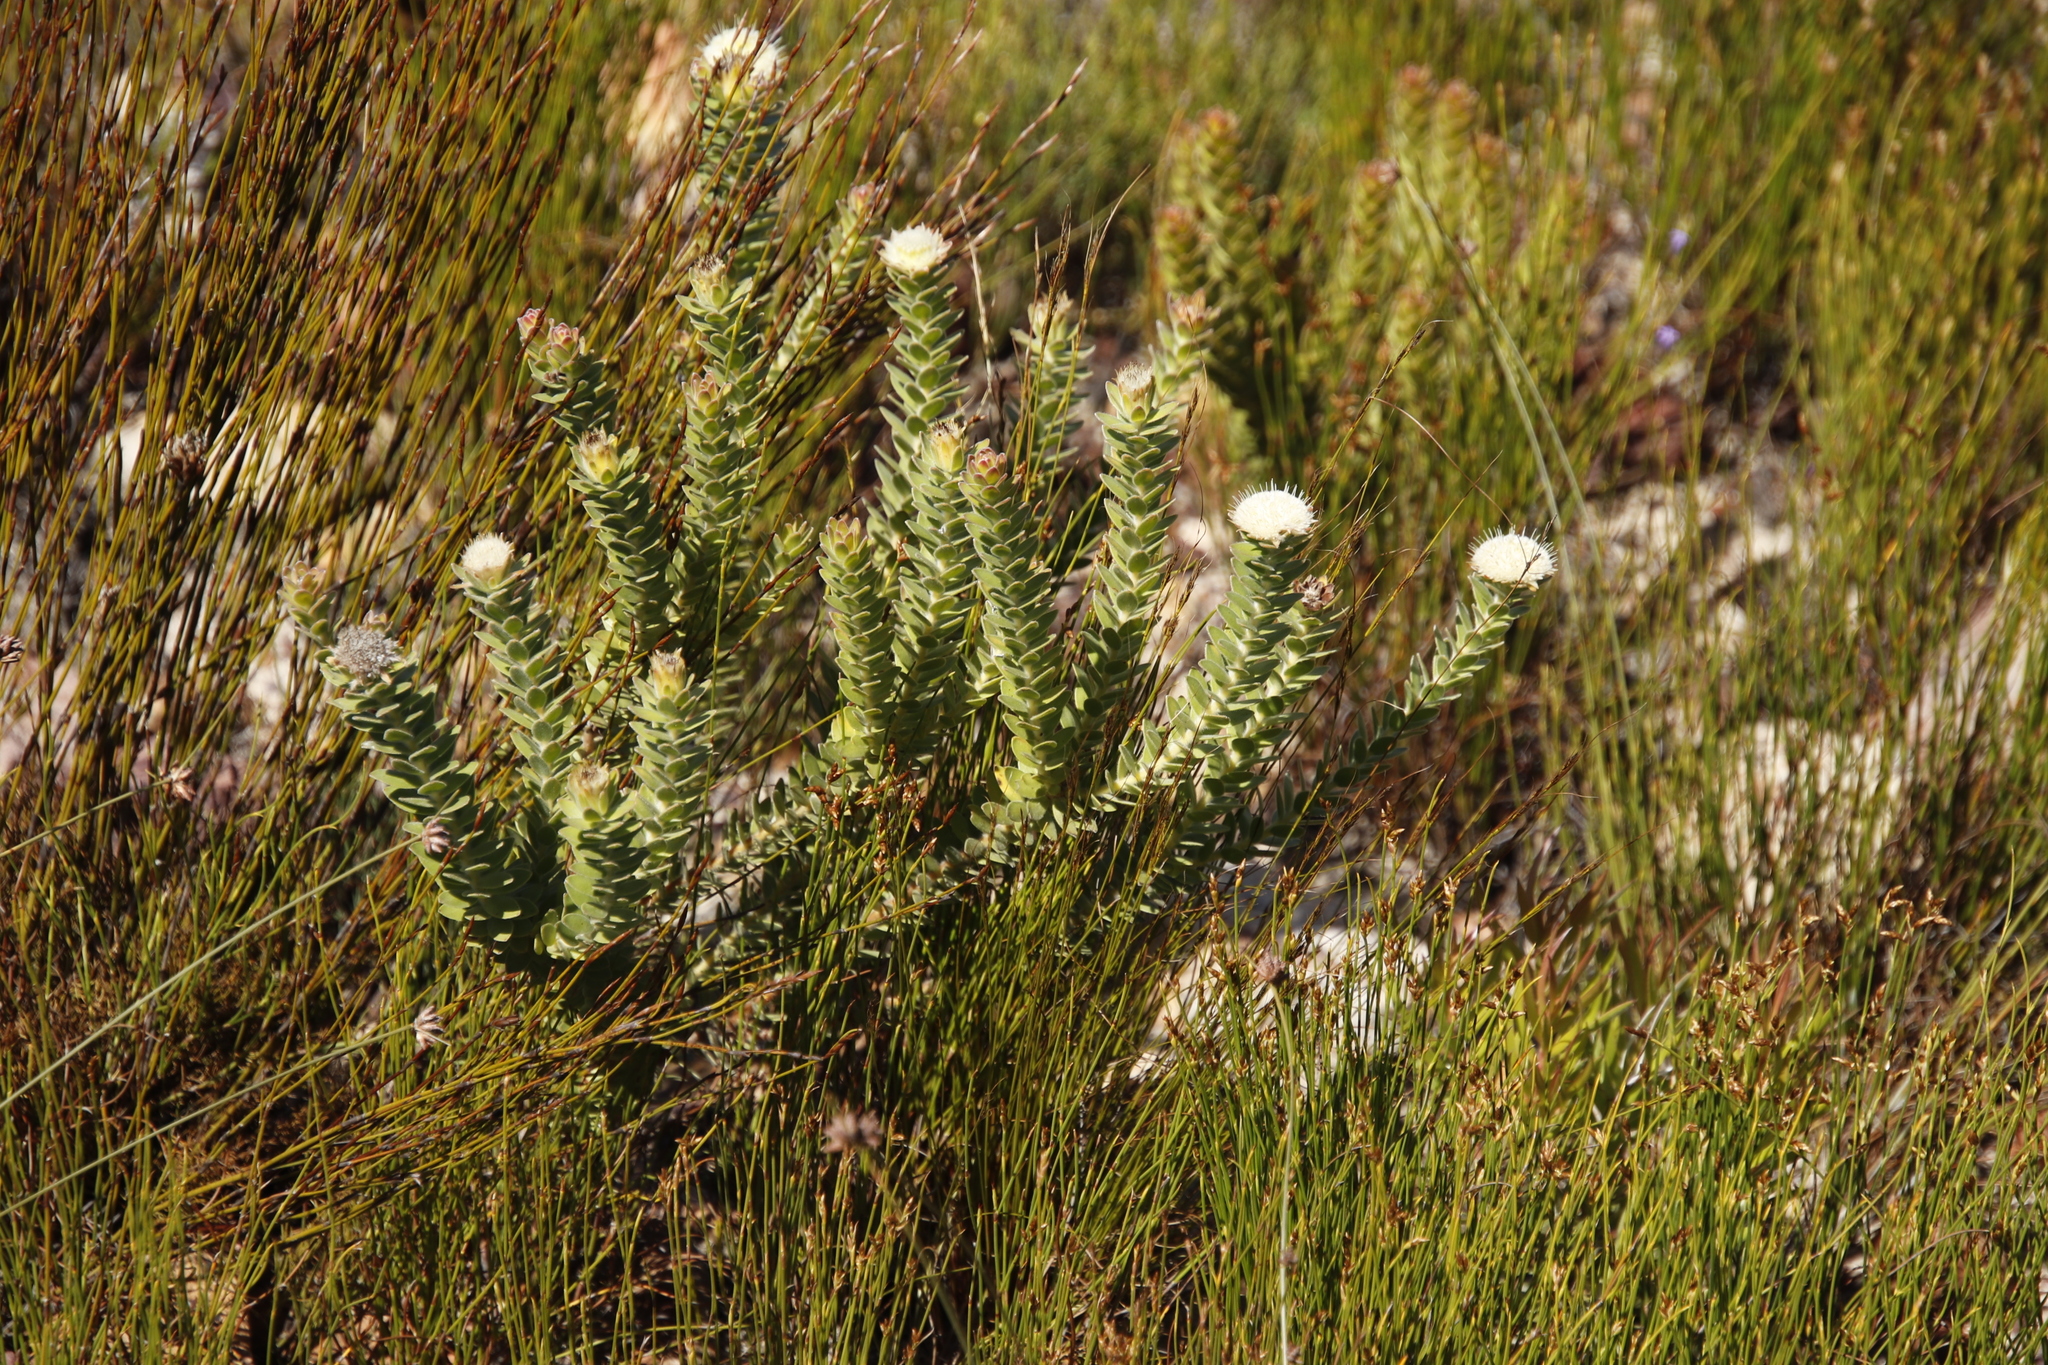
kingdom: Plantae
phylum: Tracheophyta
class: Magnoliopsida
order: Proteales
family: Proteaceae
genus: Diastella
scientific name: Diastella thymelaeoides
